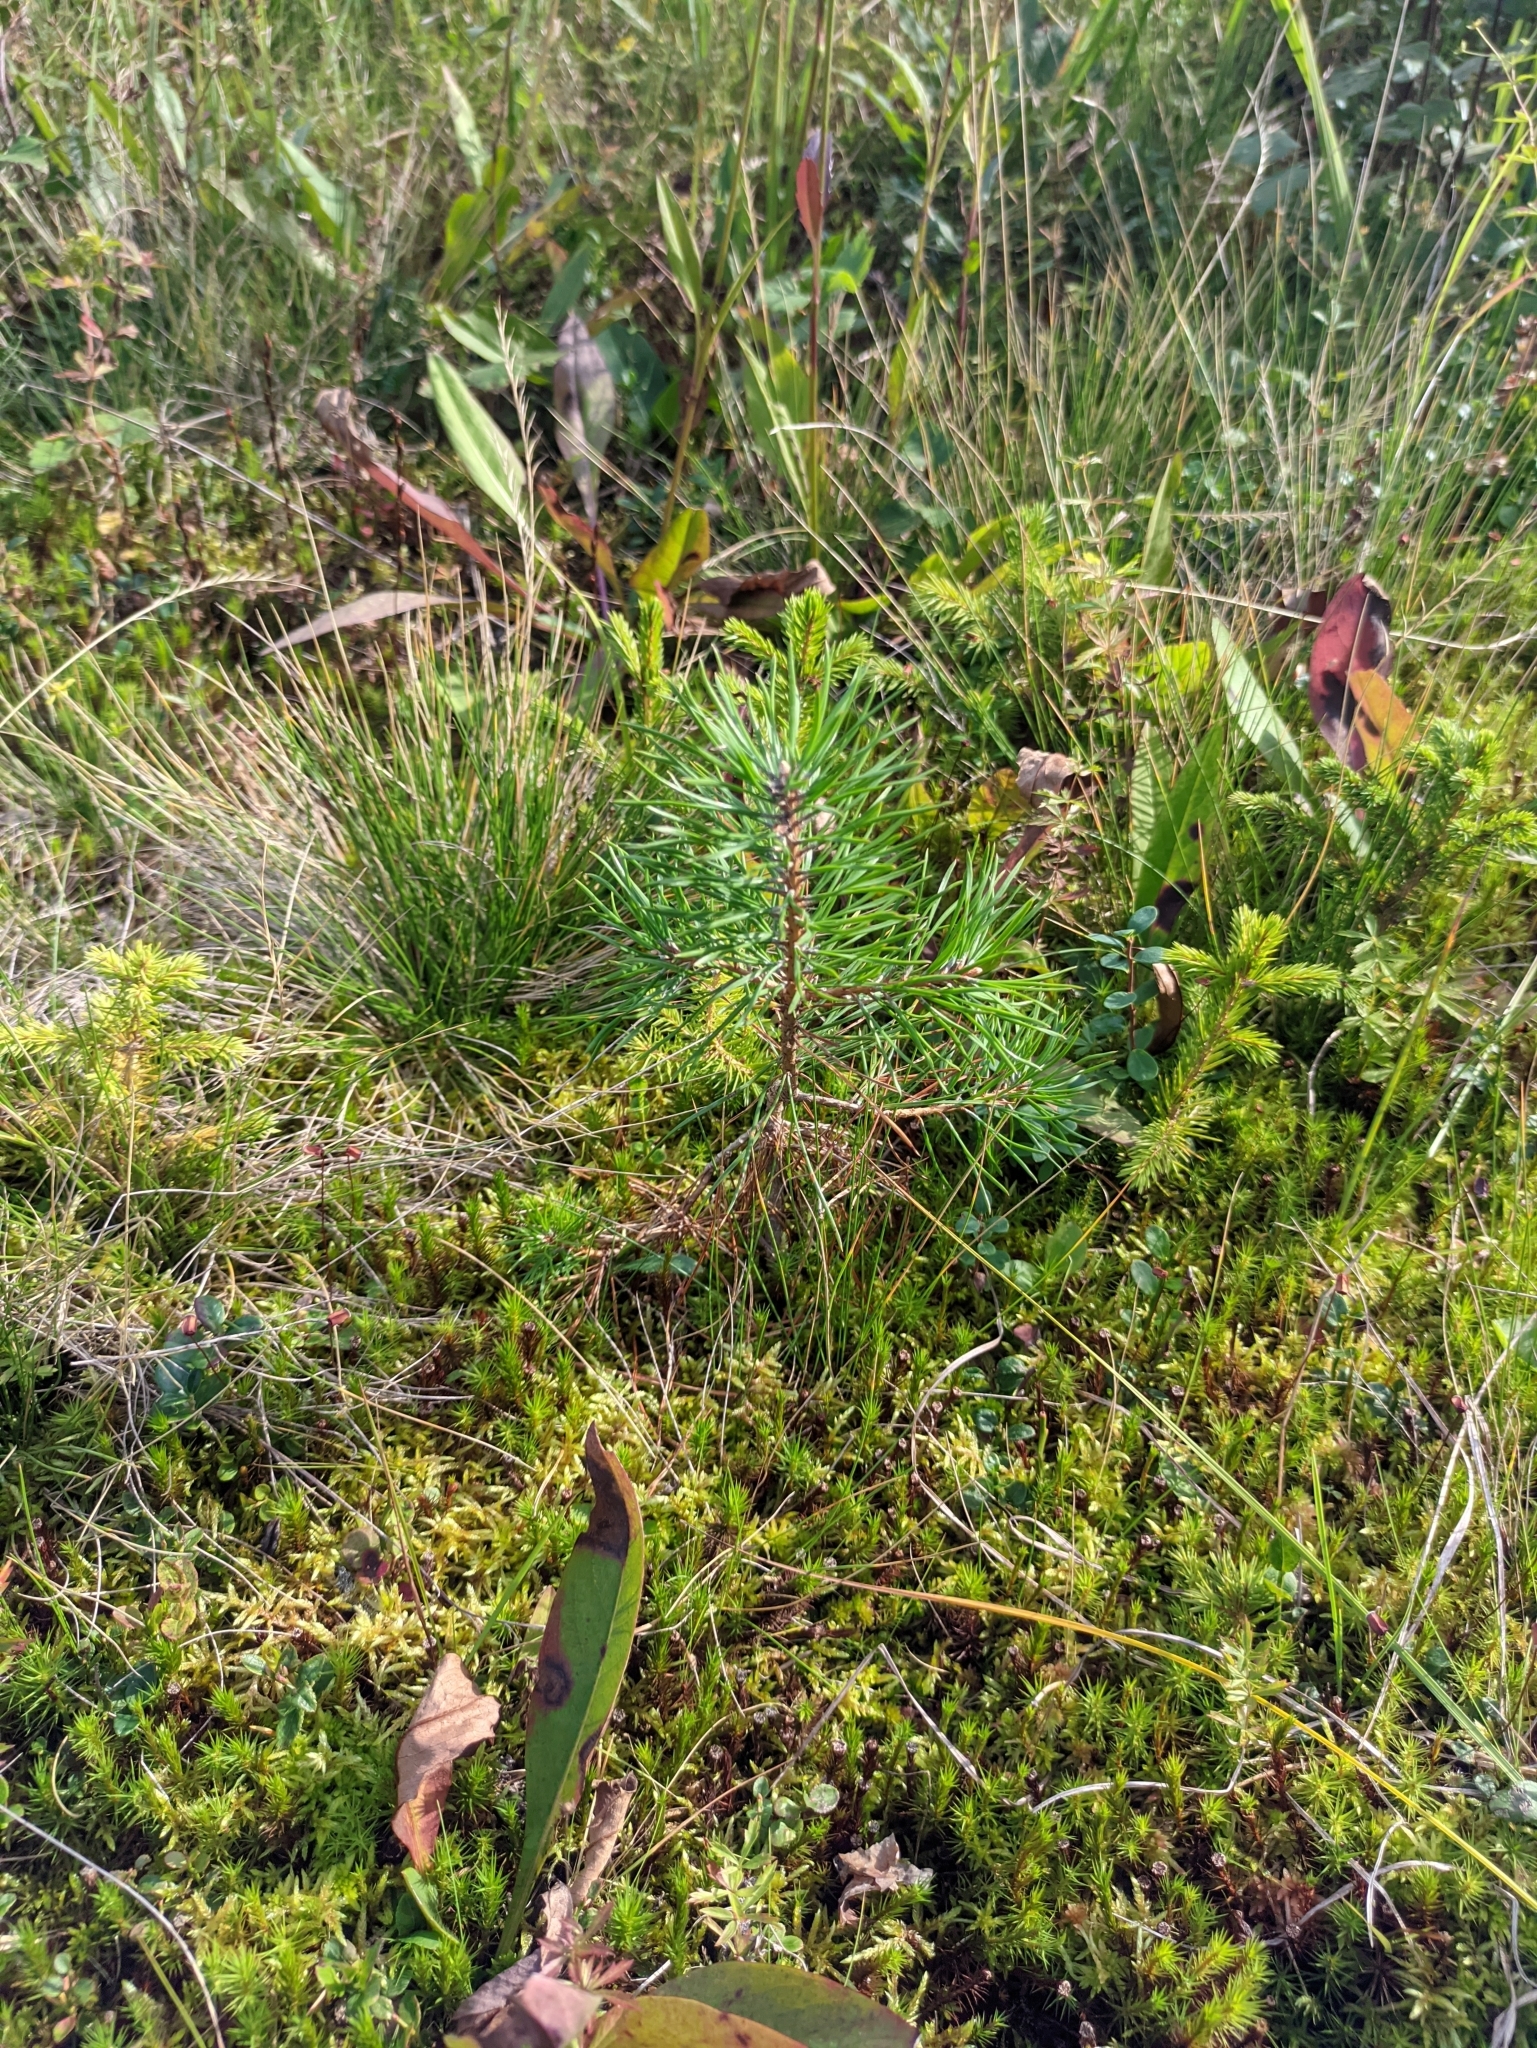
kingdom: Plantae
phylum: Tracheophyta
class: Pinopsida
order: Pinales
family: Pinaceae
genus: Pinus
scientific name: Pinus sylvestris
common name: Scots pine
